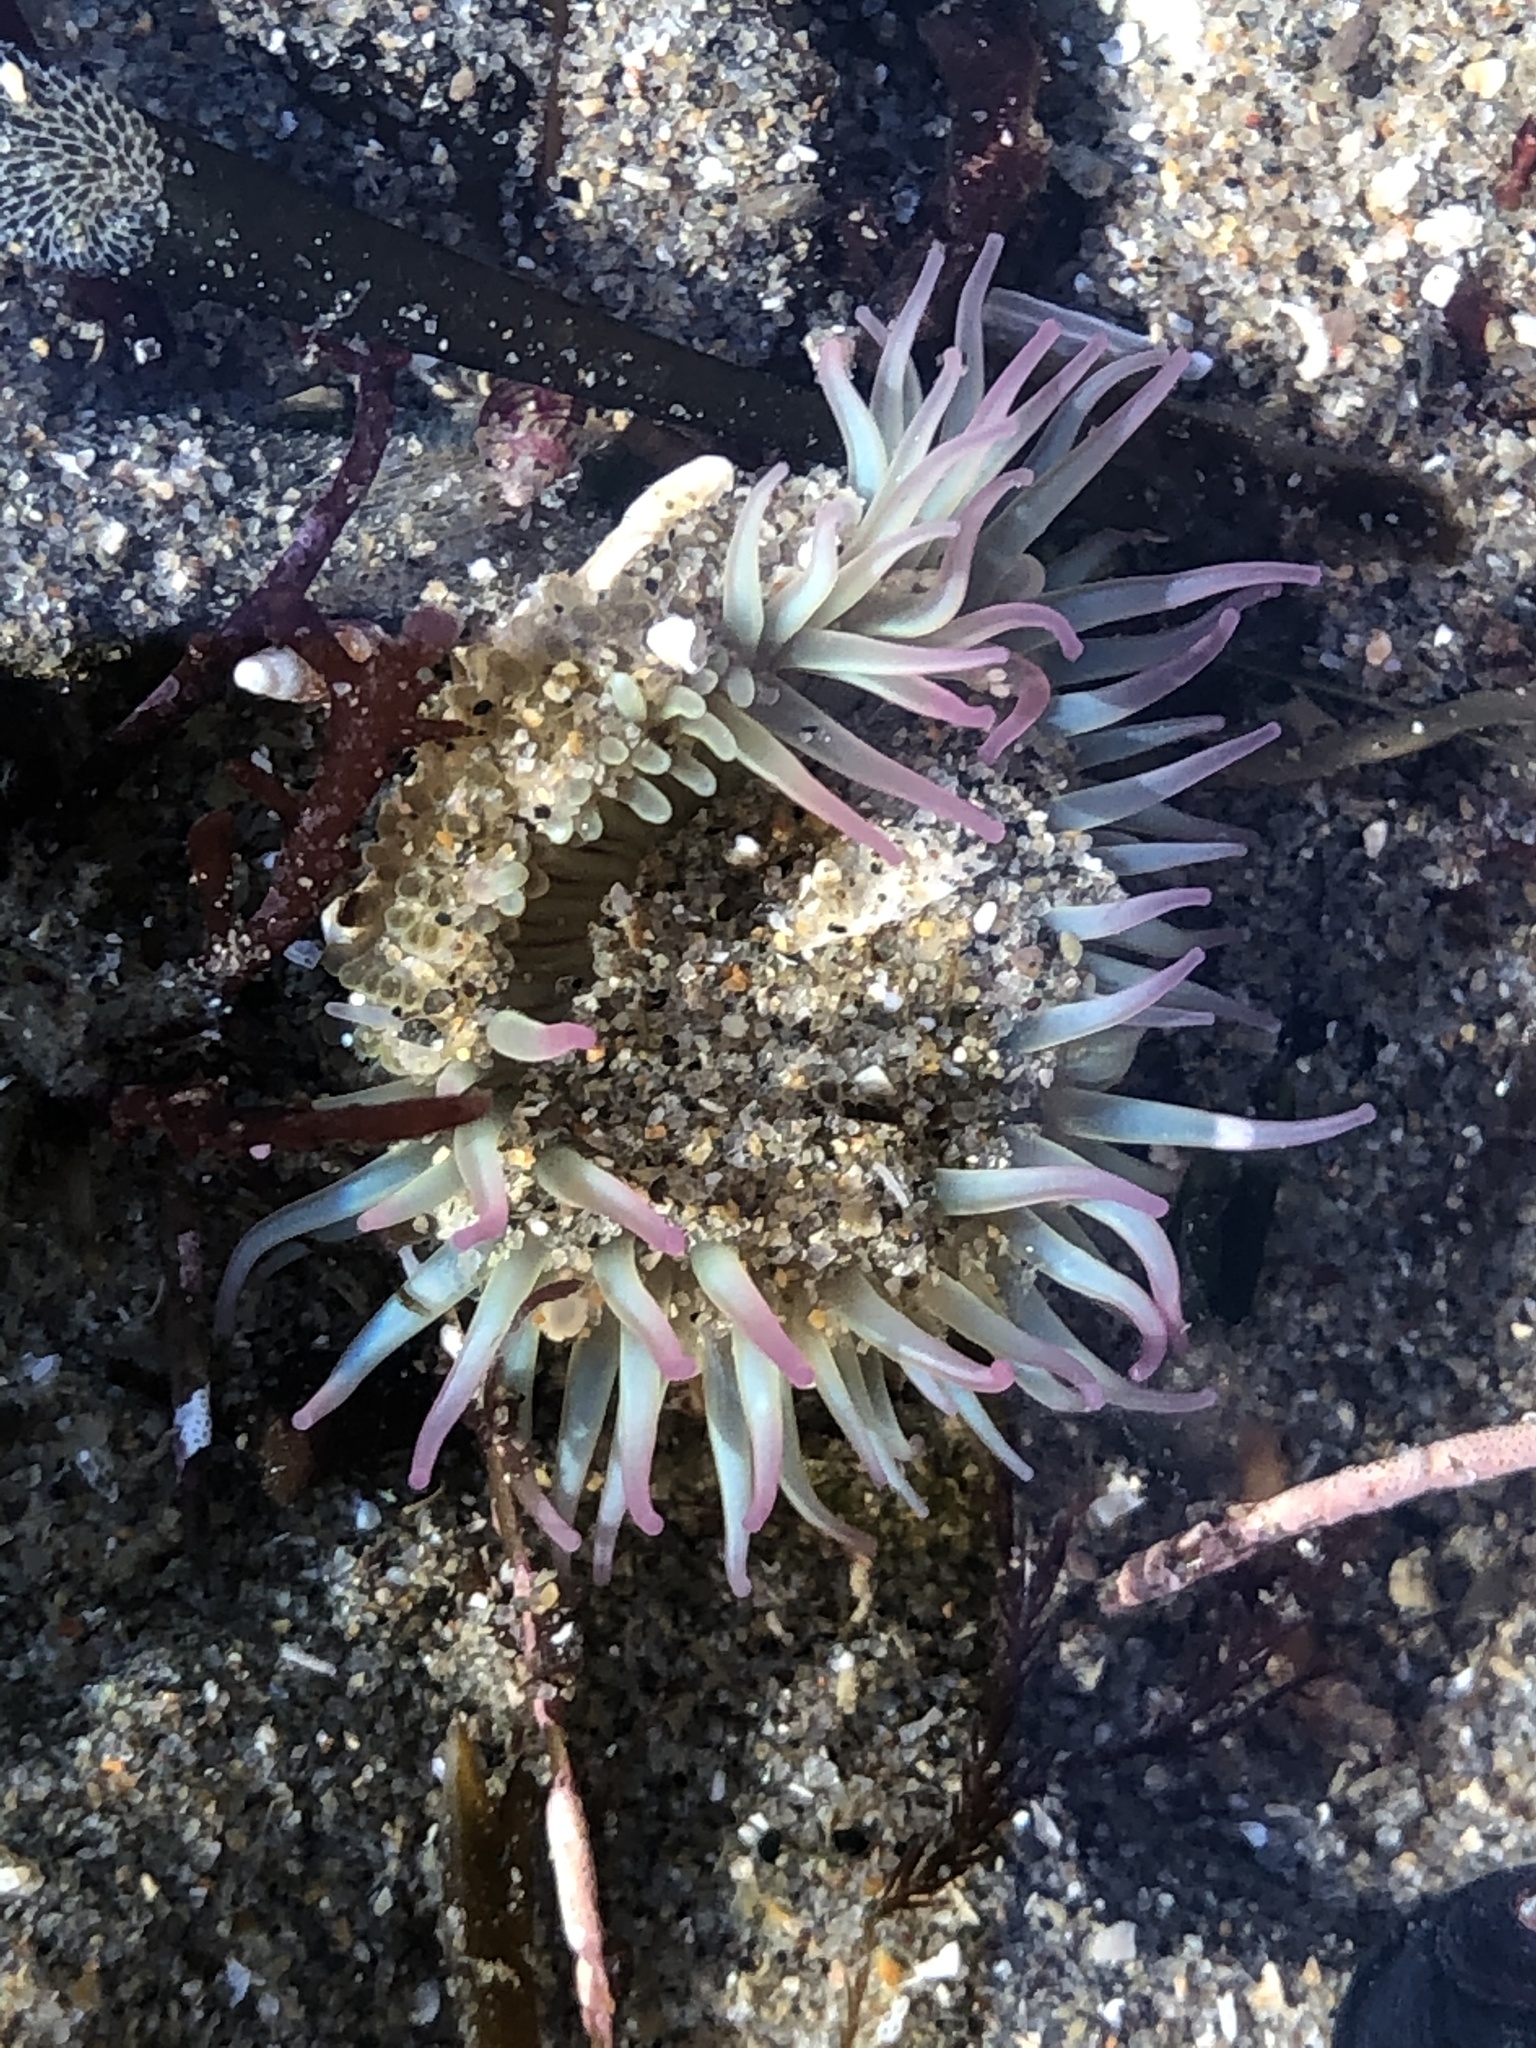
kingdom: Animalia
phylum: Cnidaria
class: Anthozoa
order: Actiniaria
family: Actiniidae
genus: Anthopleura
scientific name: Anthopleura elegantissima
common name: Clonal anemone
